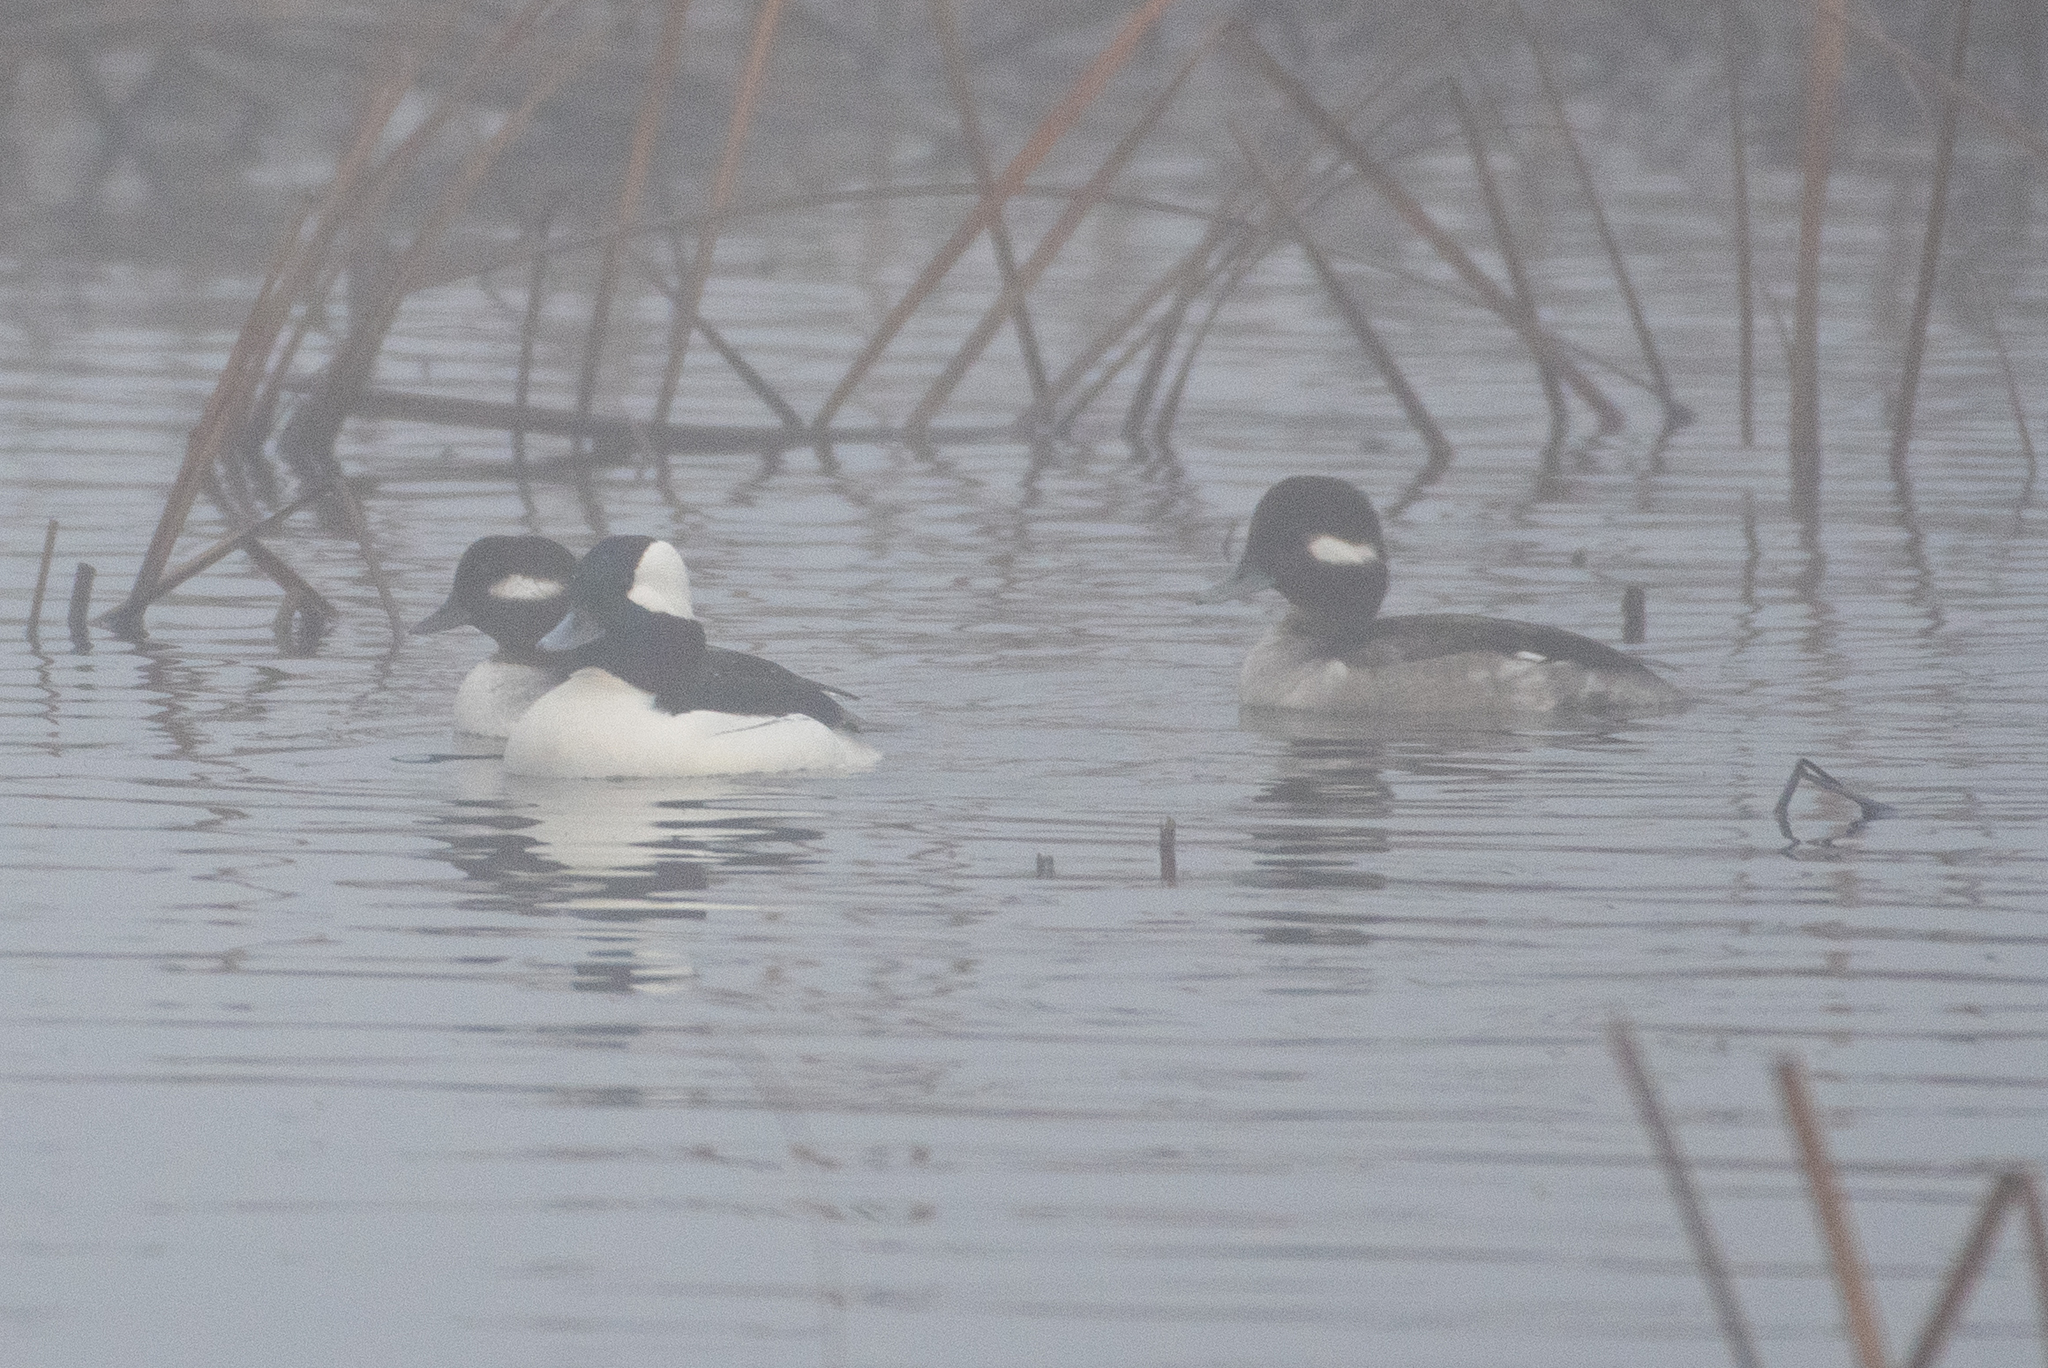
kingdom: Animalia
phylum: Chordata
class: Aves
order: Anseriformes
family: Anatidae
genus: Bucephala
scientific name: Bucephala albeola
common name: Bufflehead
